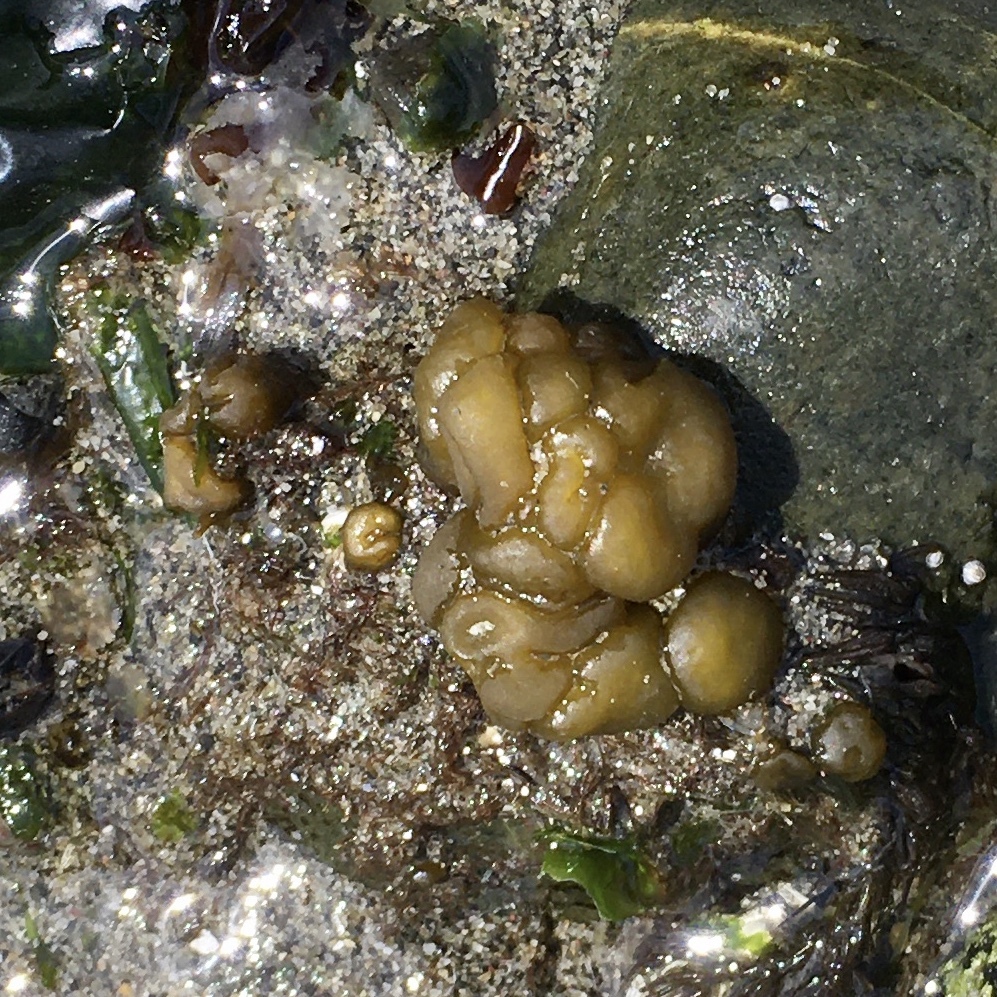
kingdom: Chromista
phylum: Ochrophyta
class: Phaeophyceae
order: Ectocarpales
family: Chordariaceae
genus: Leathesia
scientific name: Leathesia marina
